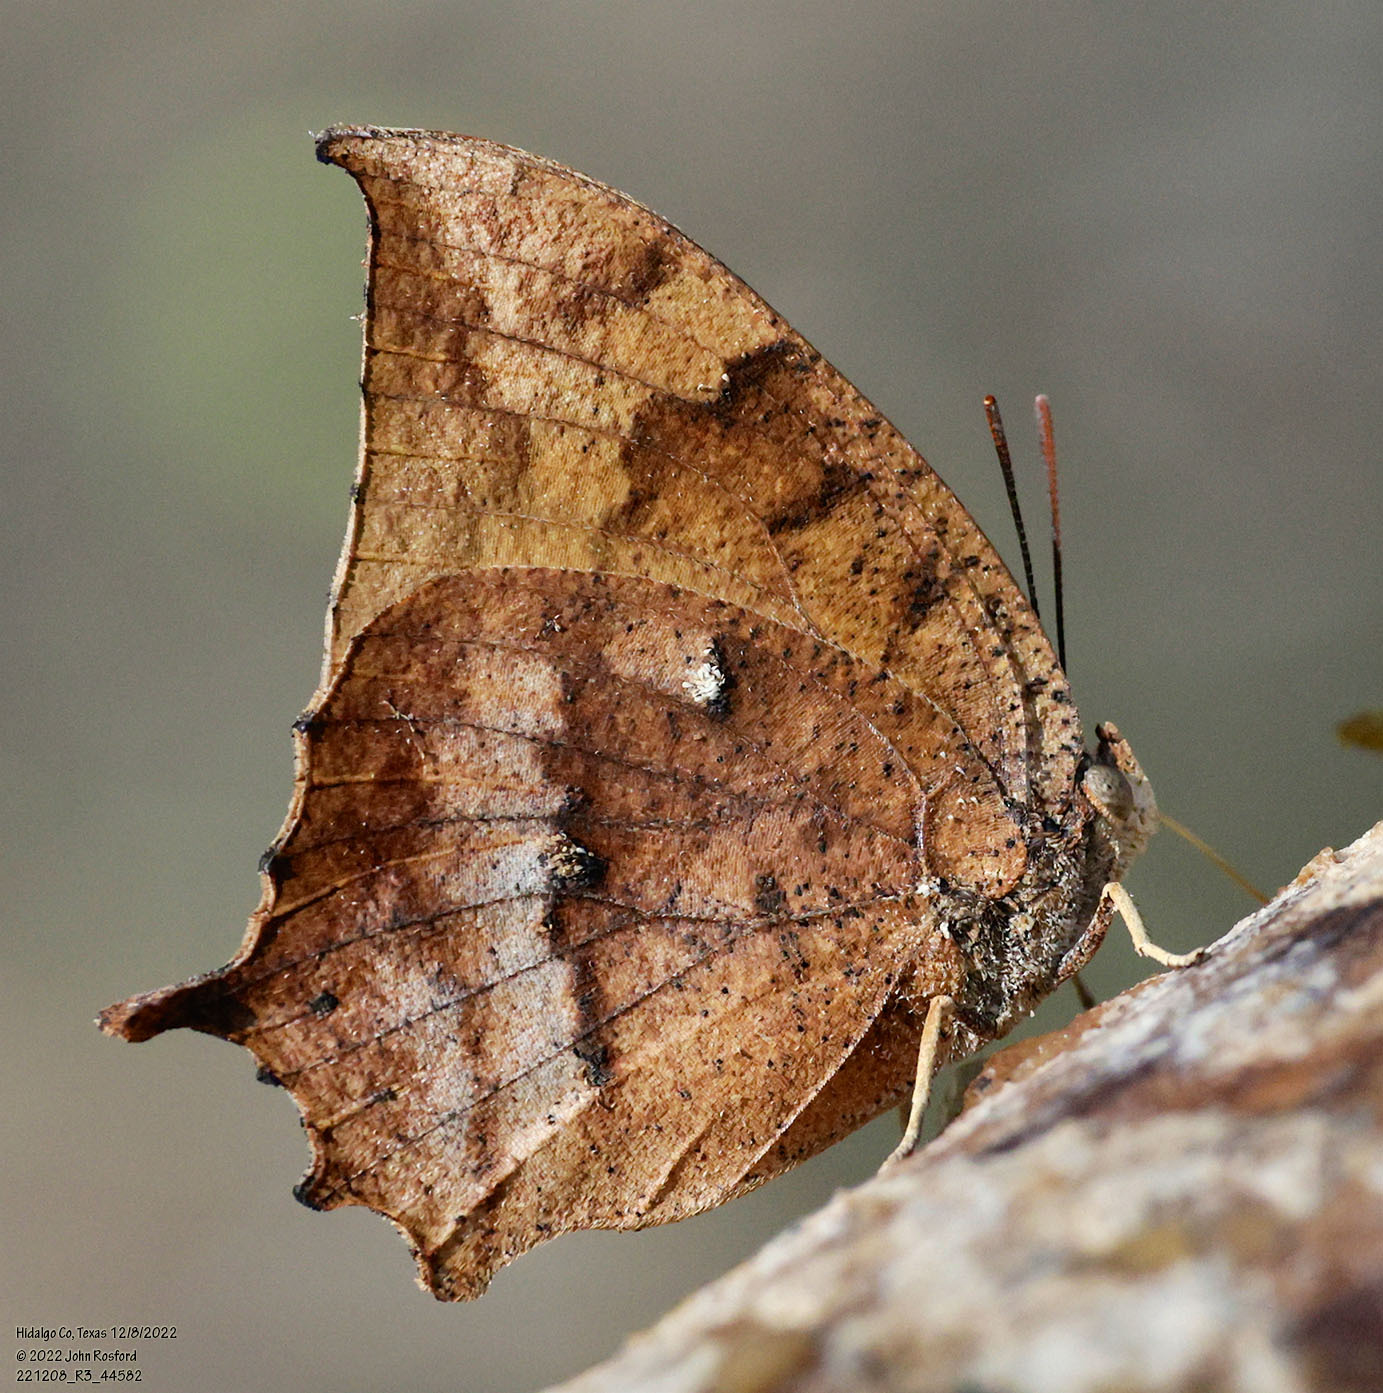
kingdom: Animalia
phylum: Arthropoda
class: Insecta
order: Lepidoptera
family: Nymphalidae
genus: Anaea
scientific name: Anaea aidea
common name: Tropical leafwing
